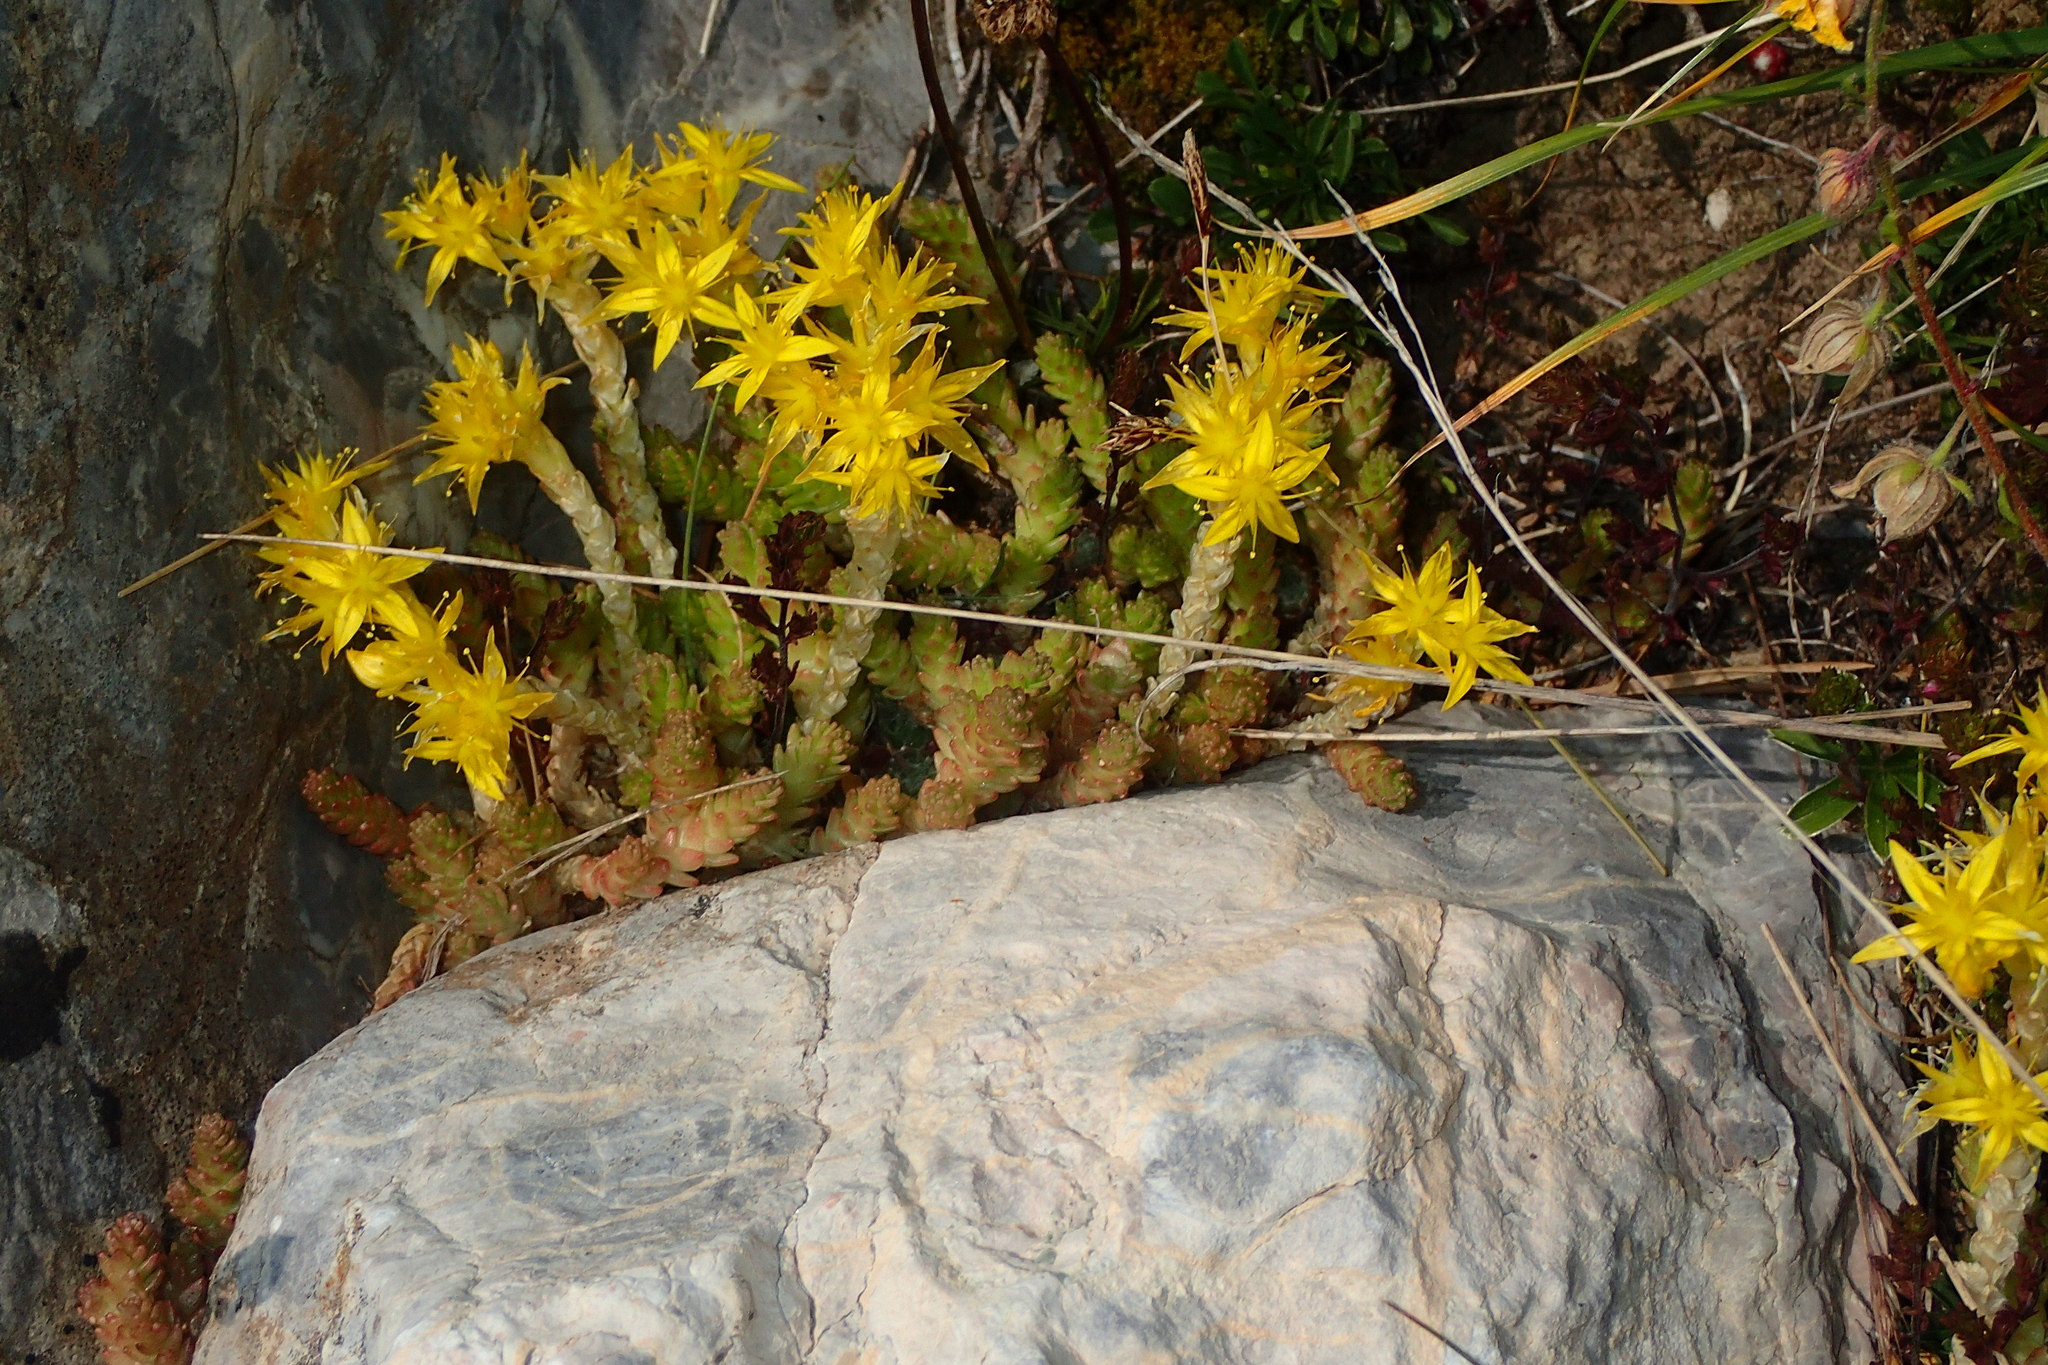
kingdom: Plantae
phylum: Tracheophyta
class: Magnoliopsida
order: Saxifragales
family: Crassulaceae
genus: Sedum
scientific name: Sedum acre
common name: Biting stonecrop
